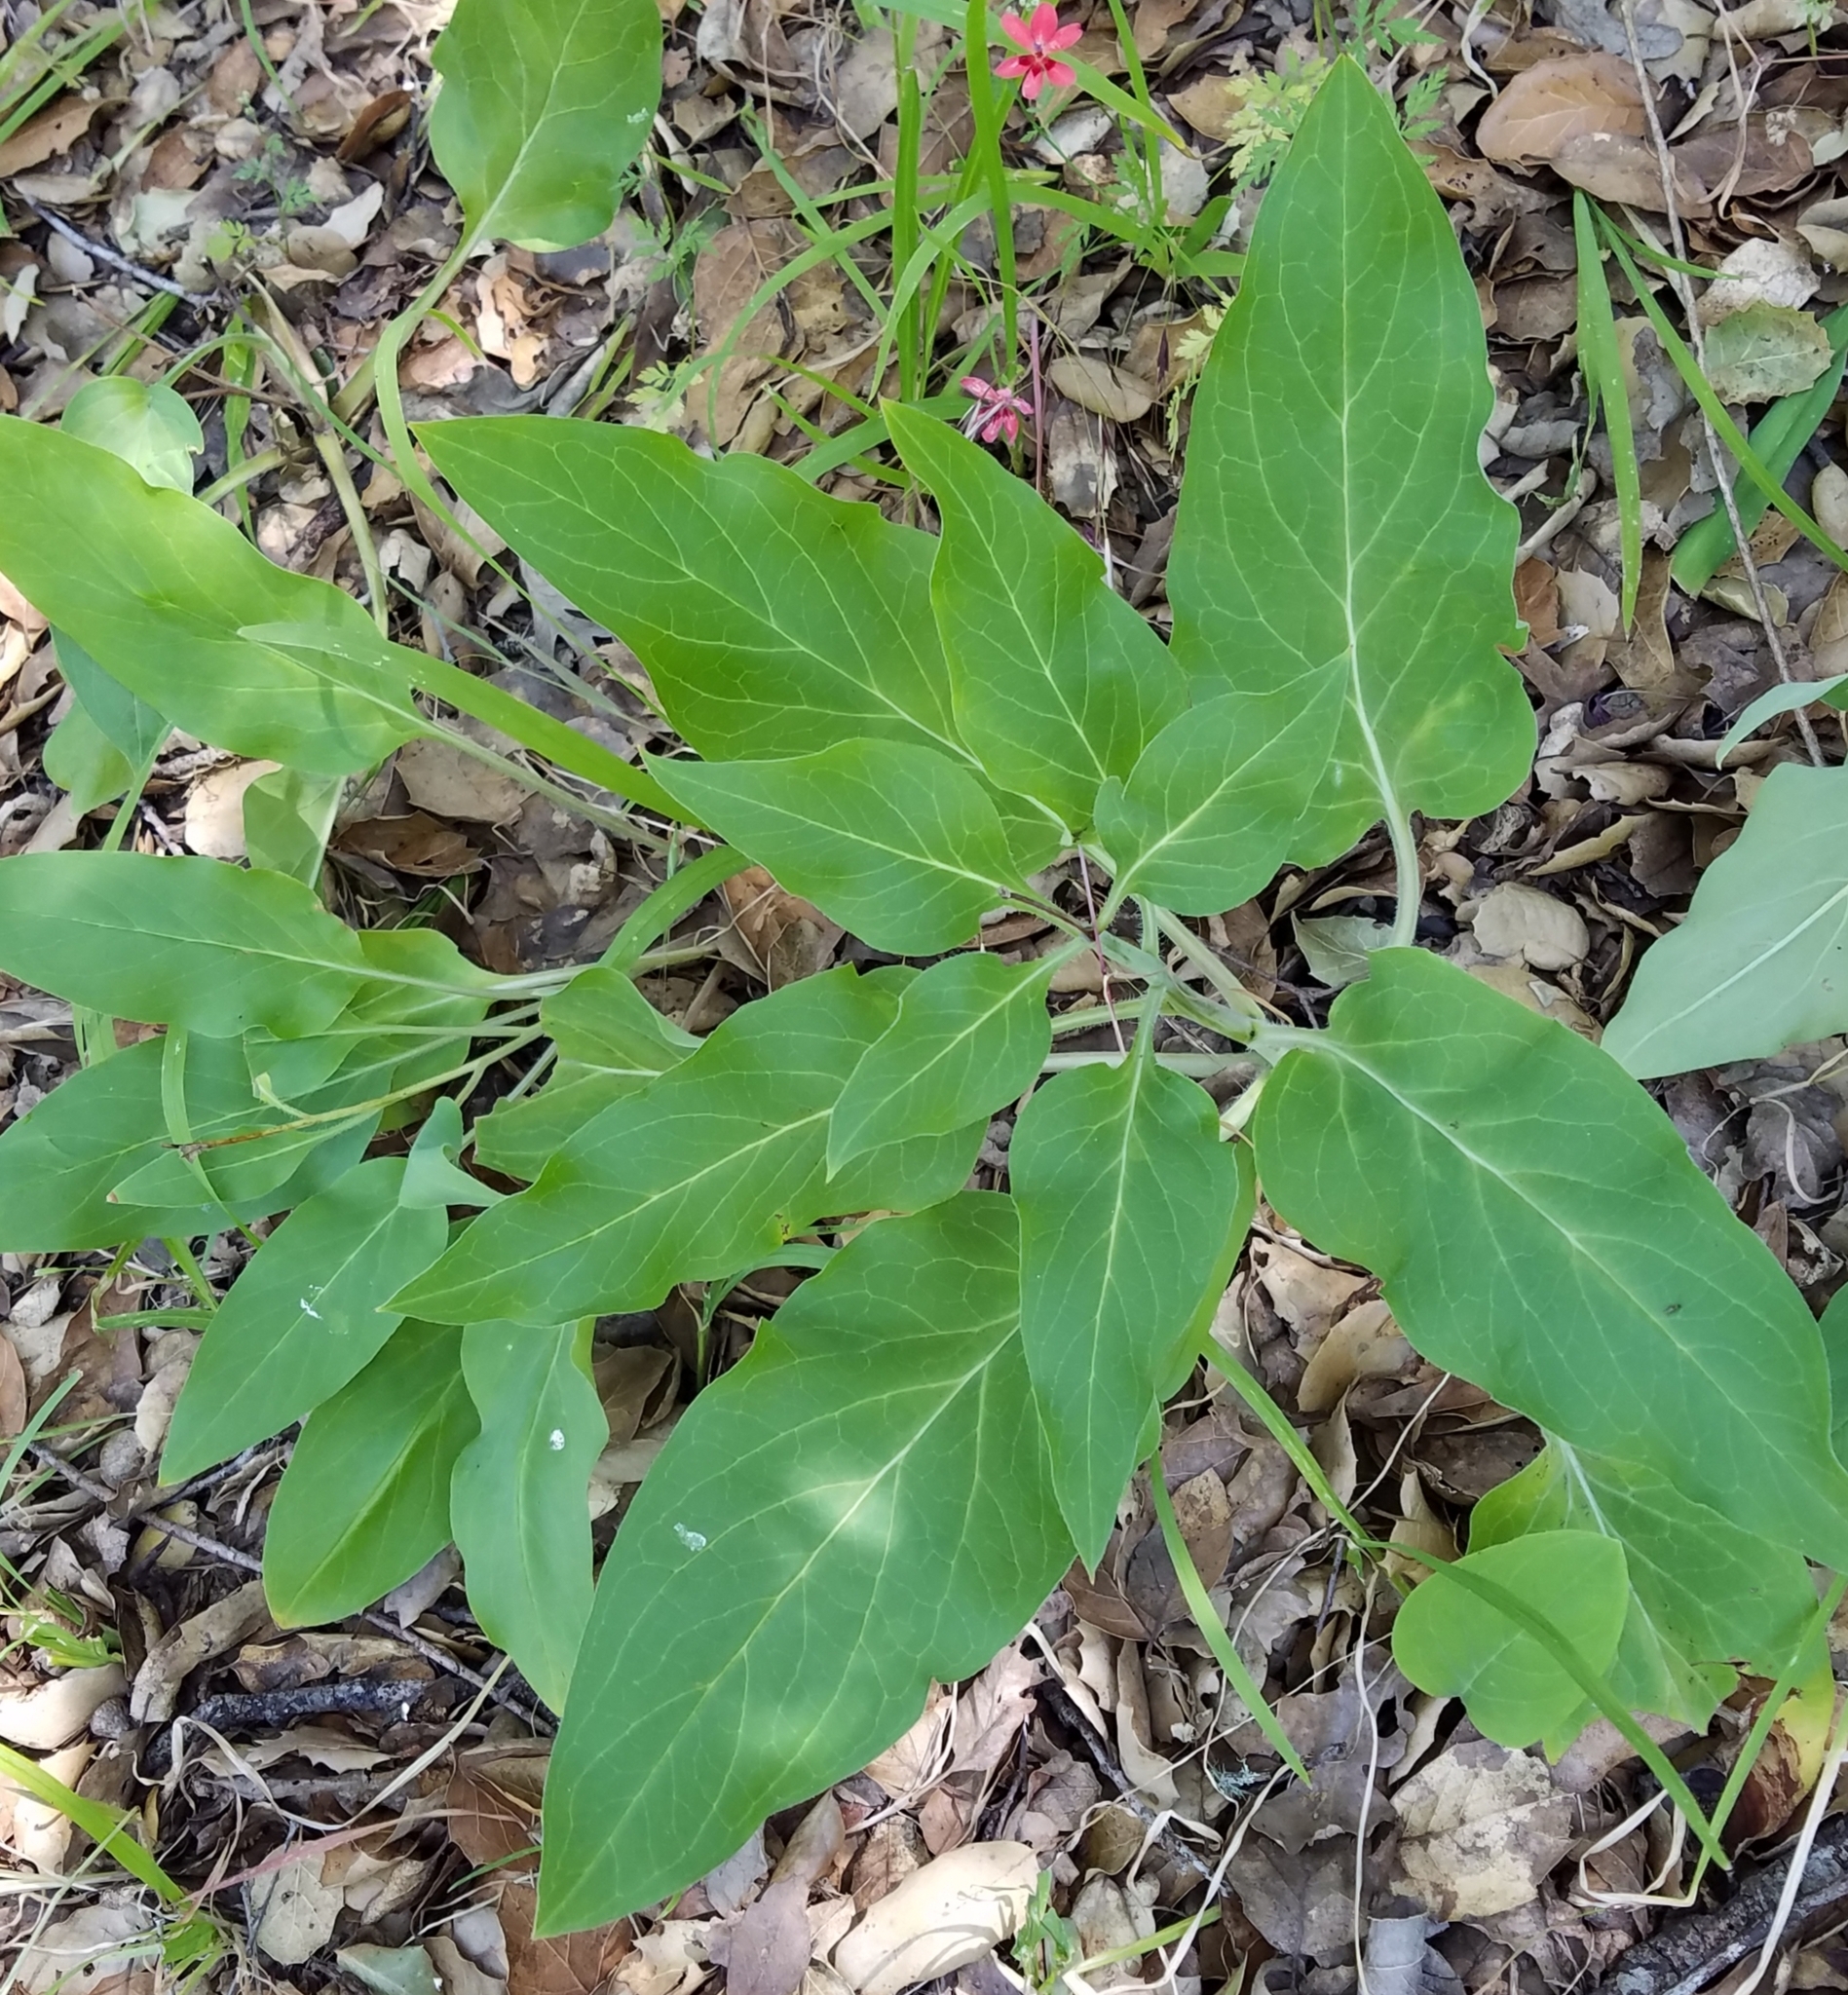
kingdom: Plantae
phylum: Tracheophyta
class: Magnoliopsida
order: Boraginales
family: Boraginaceae
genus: Adelinia
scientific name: Adelinia grande
